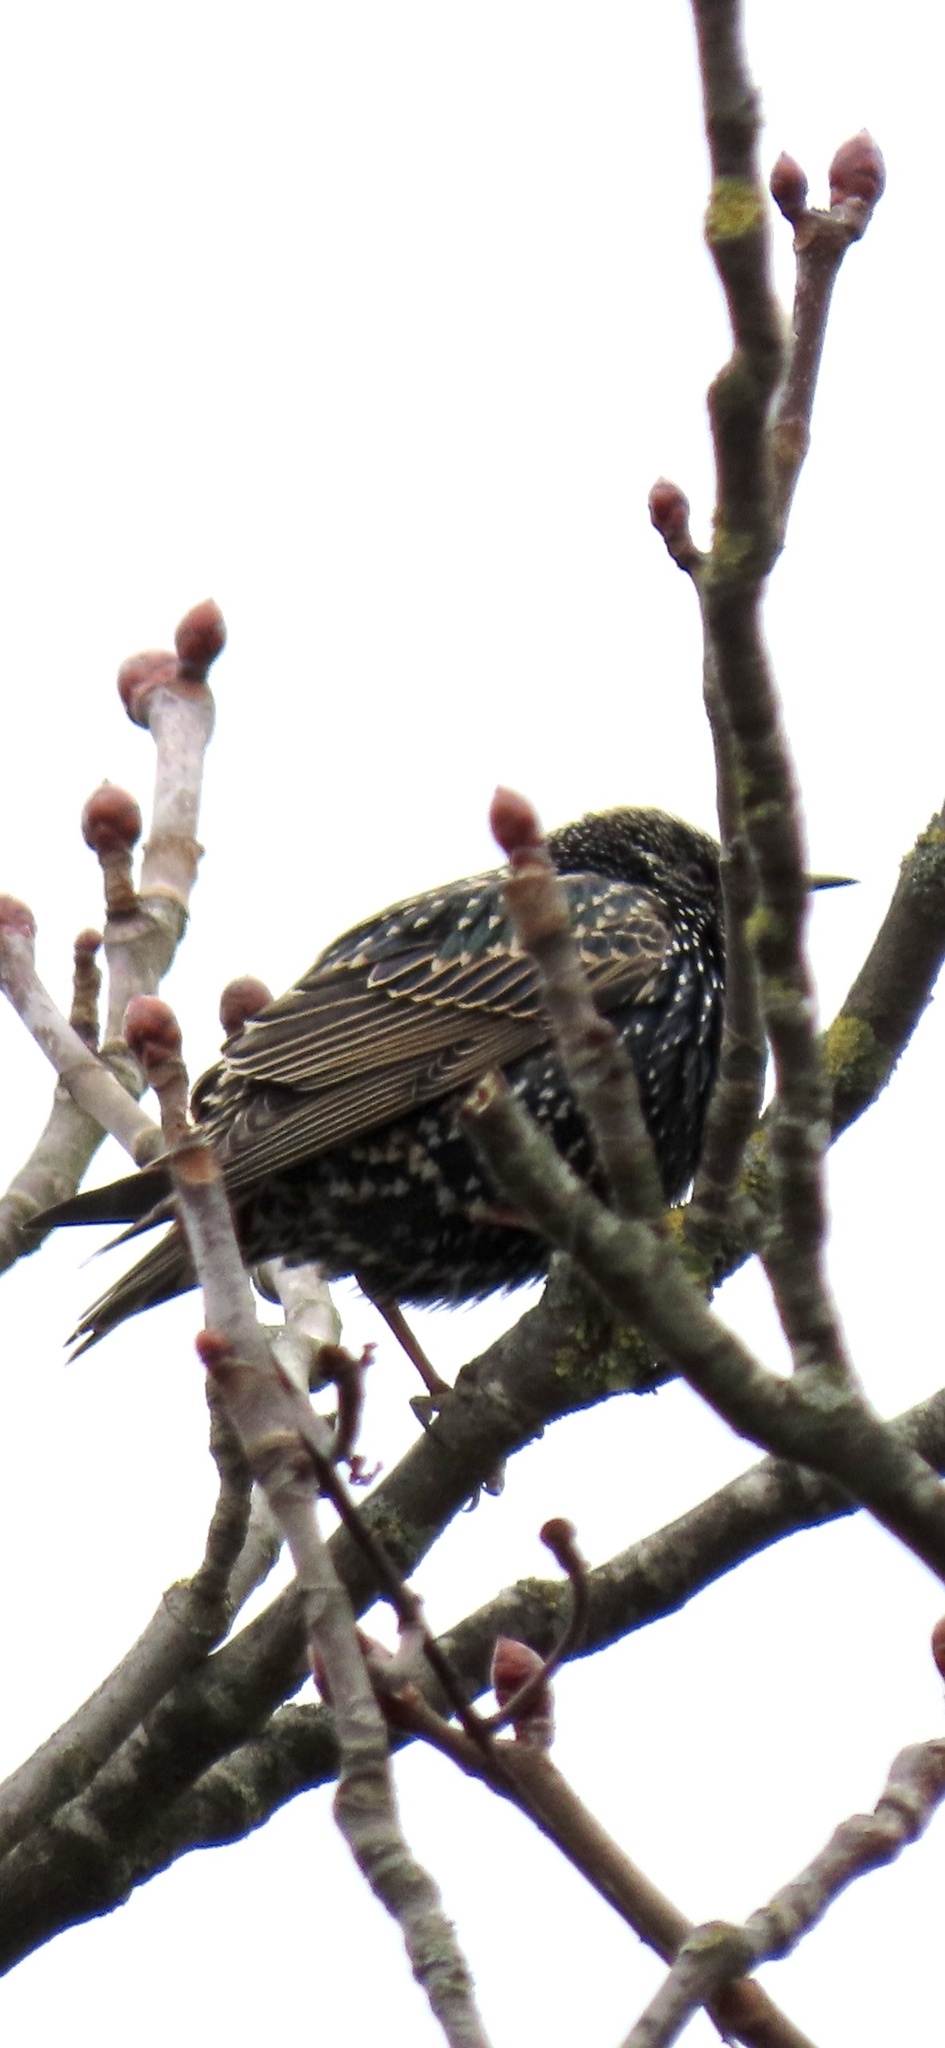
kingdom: Animalia
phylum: Chordata
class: Aves
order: Passeriformes
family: Sturnidae
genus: Sturnus
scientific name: Sturnus vulgaris
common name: Common starling
